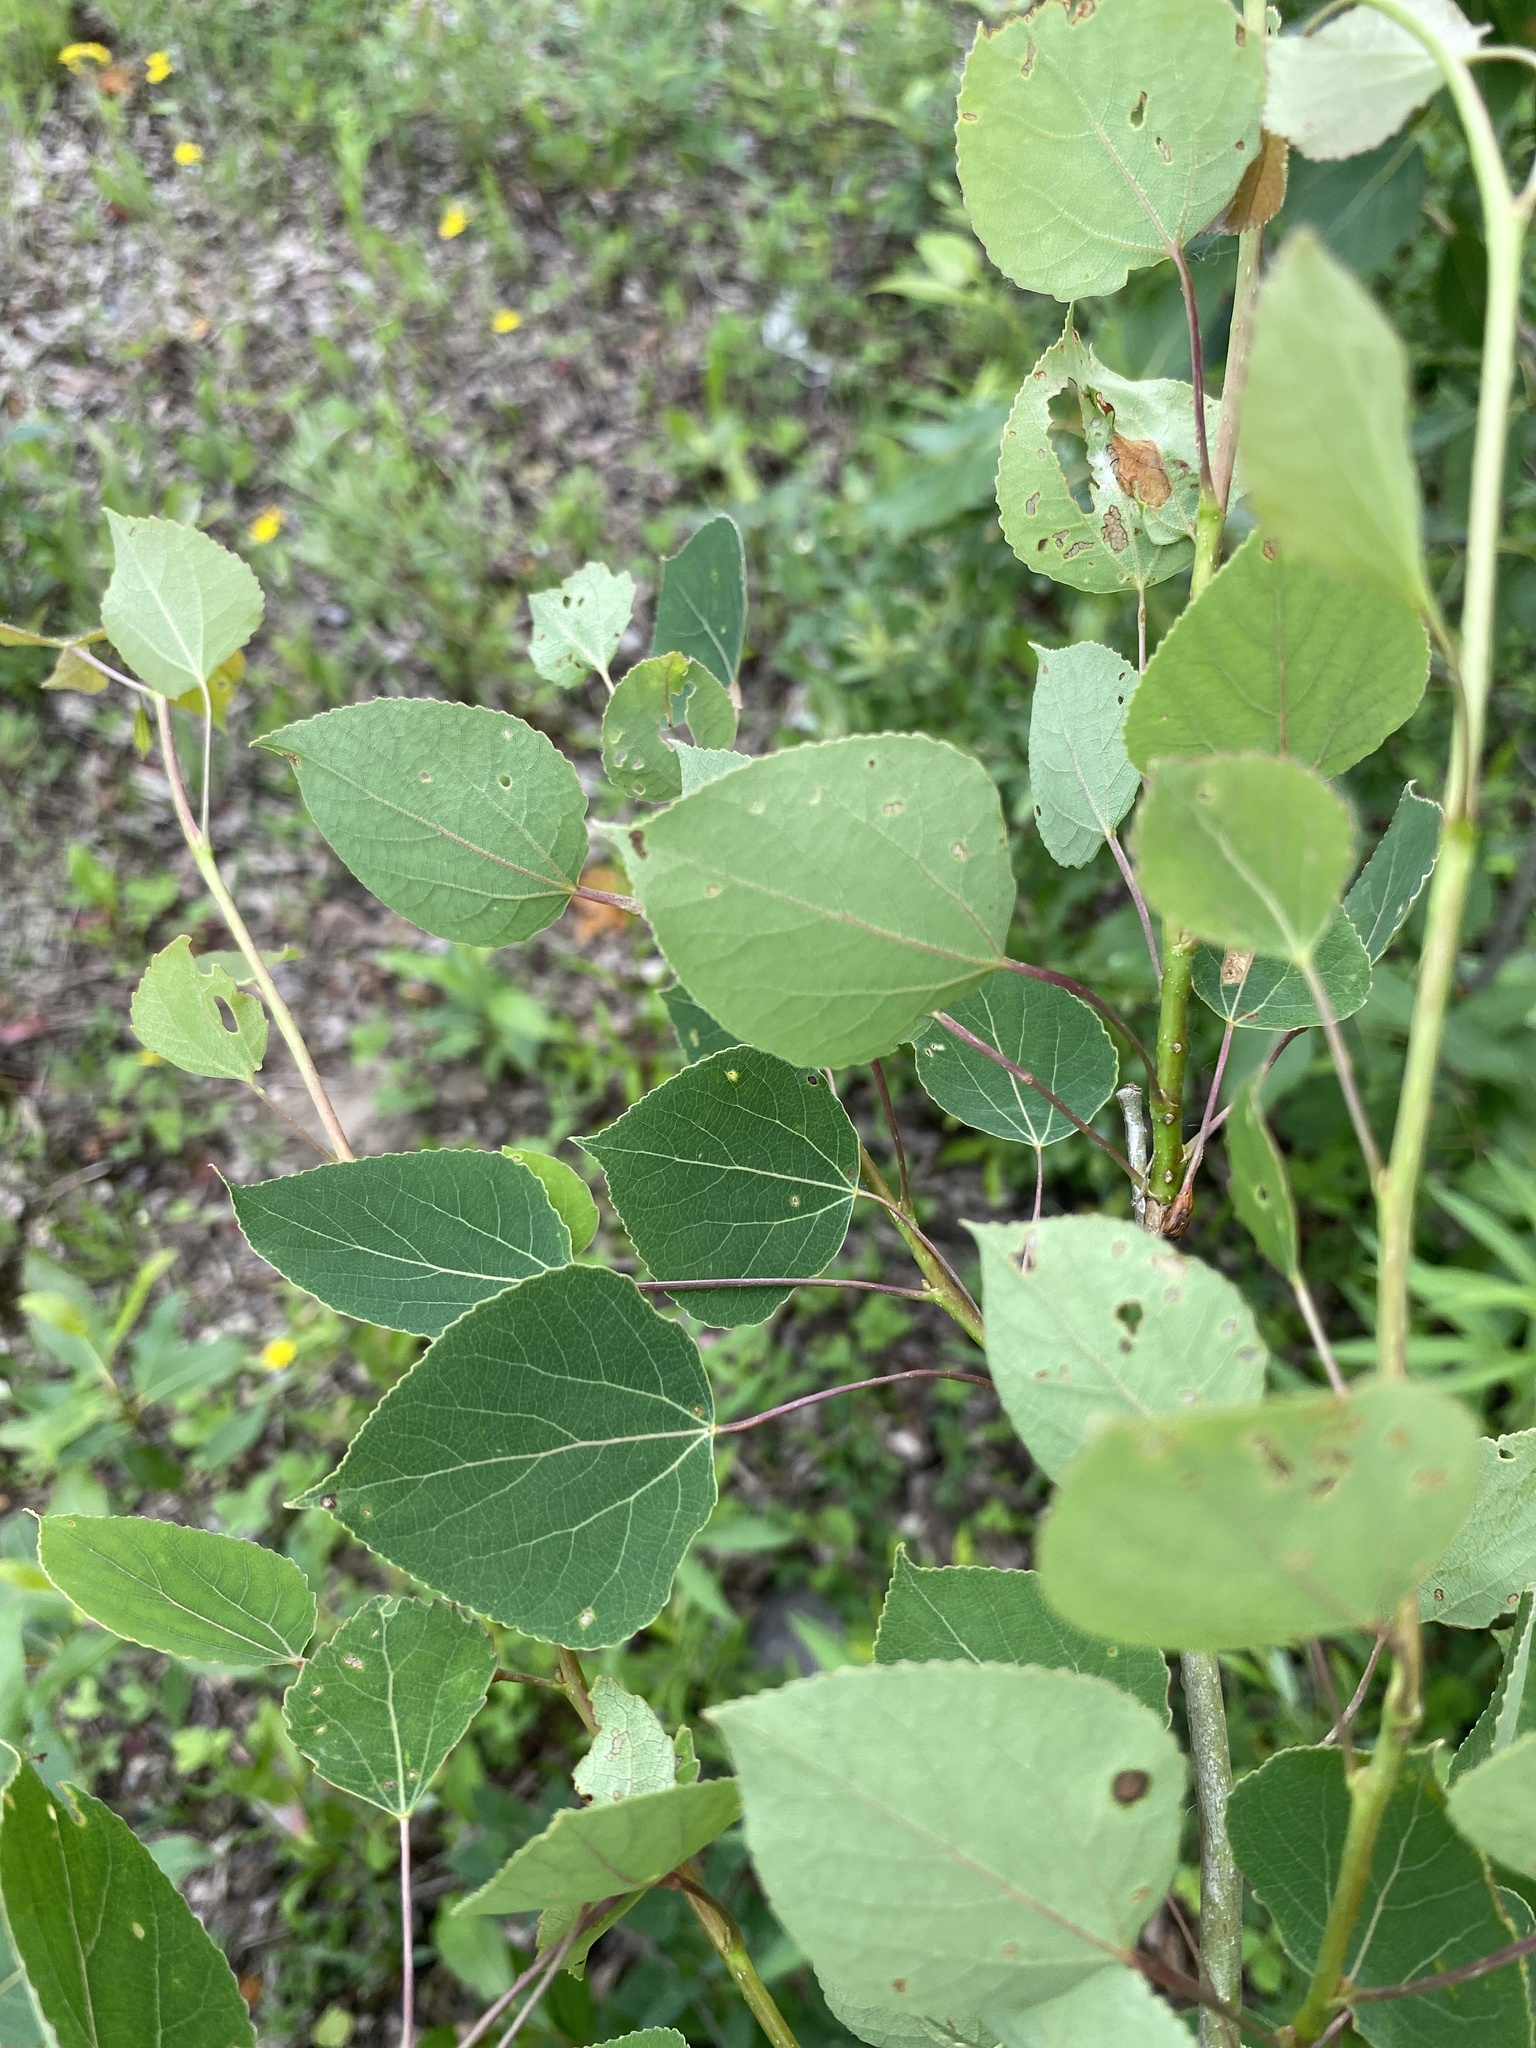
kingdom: Plantae
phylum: Tracheophyta
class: Magnoliopsida
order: Malpighiales
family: Salicaceae
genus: Populus
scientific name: Populus tremuloides
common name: Quaking aspen
